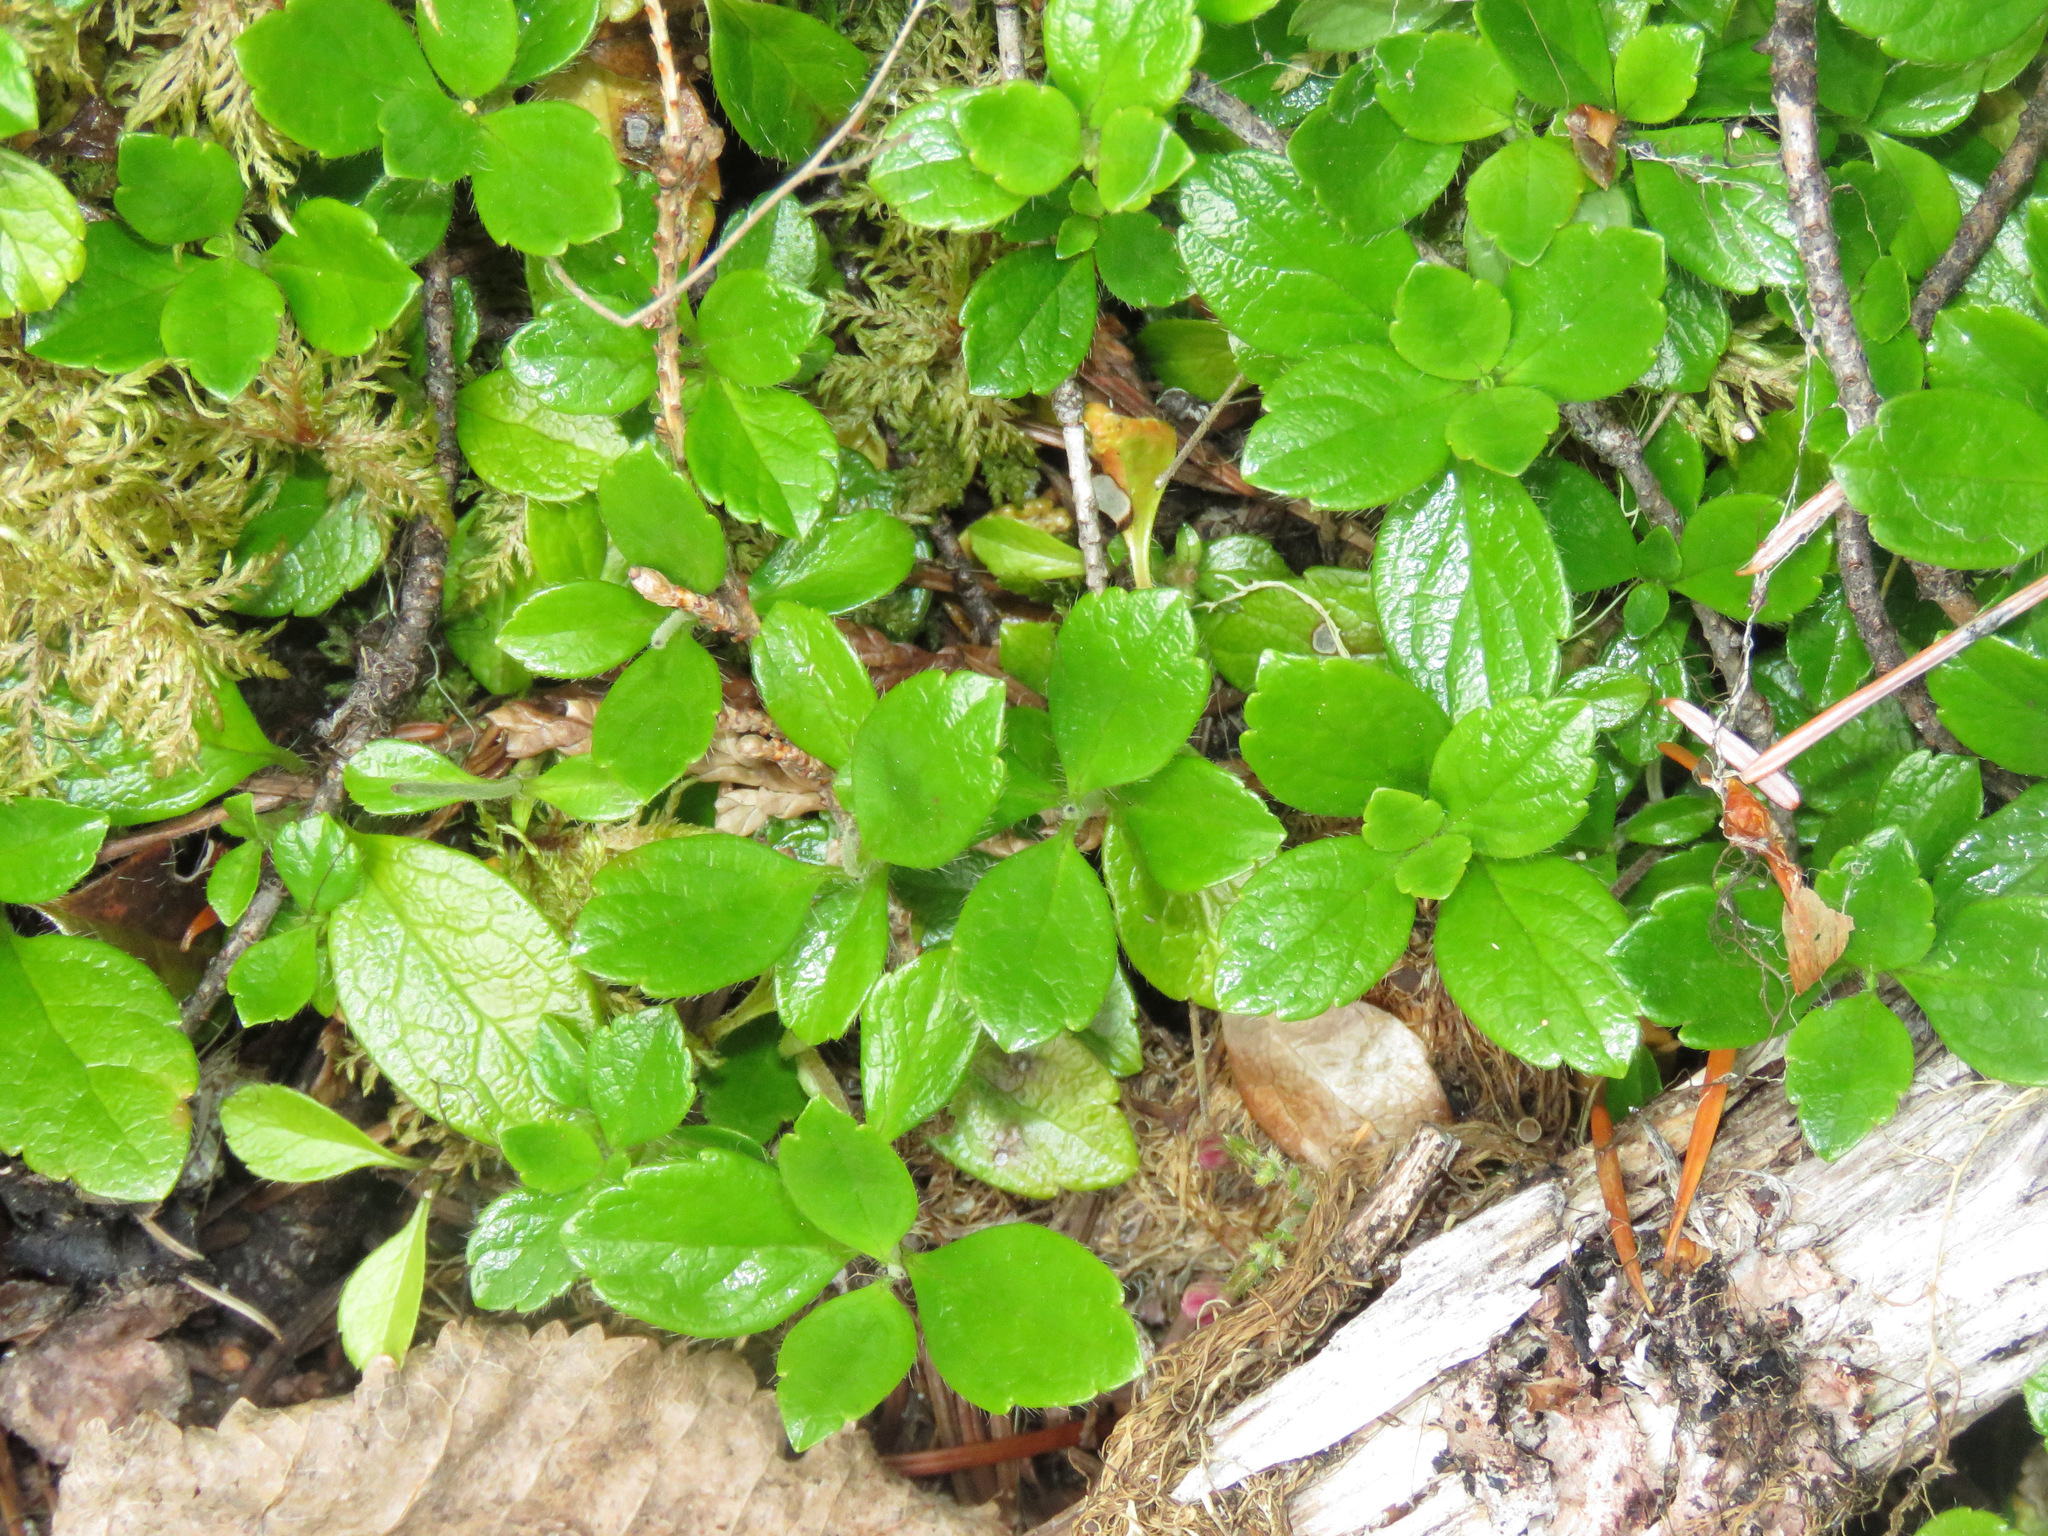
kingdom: Plantae
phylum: Tracheophyta
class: Magnoliopsida
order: Dipsacales
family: Caprifoliaceae
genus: Linnaea
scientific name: Linnaea borealis
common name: Twinflower
